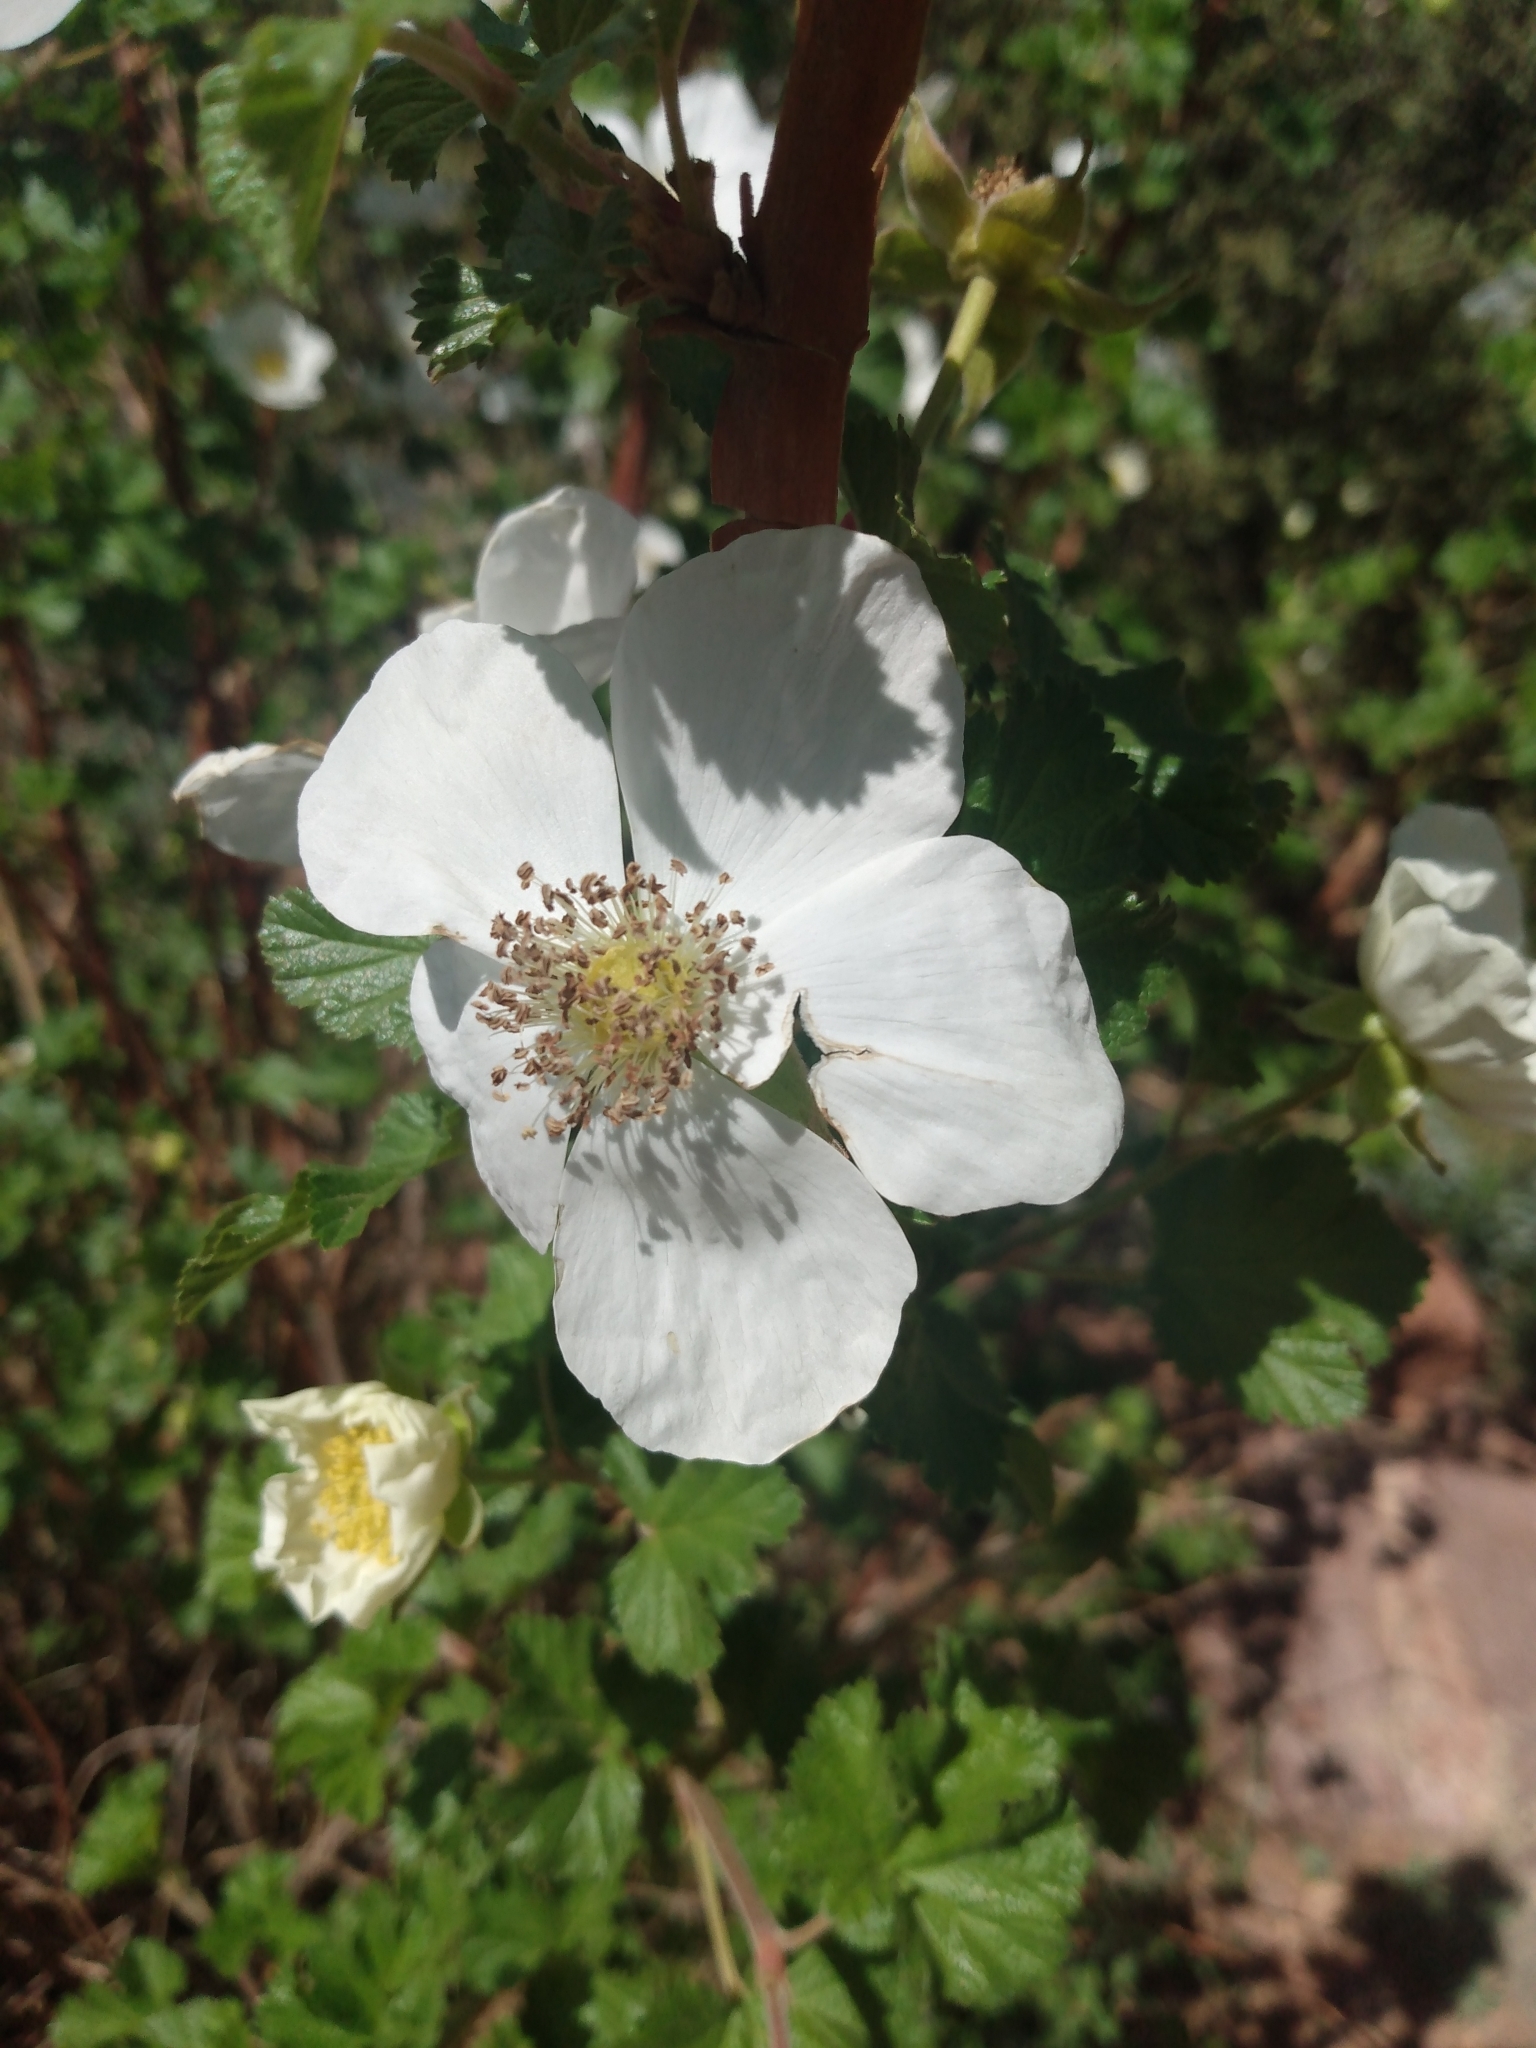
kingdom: Plantae
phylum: Tracheophyta
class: Magnoliopsida
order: Rosales
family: Rosaceae
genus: Rubus
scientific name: Rubus deliciosus
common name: Rocky mountain raspberry
